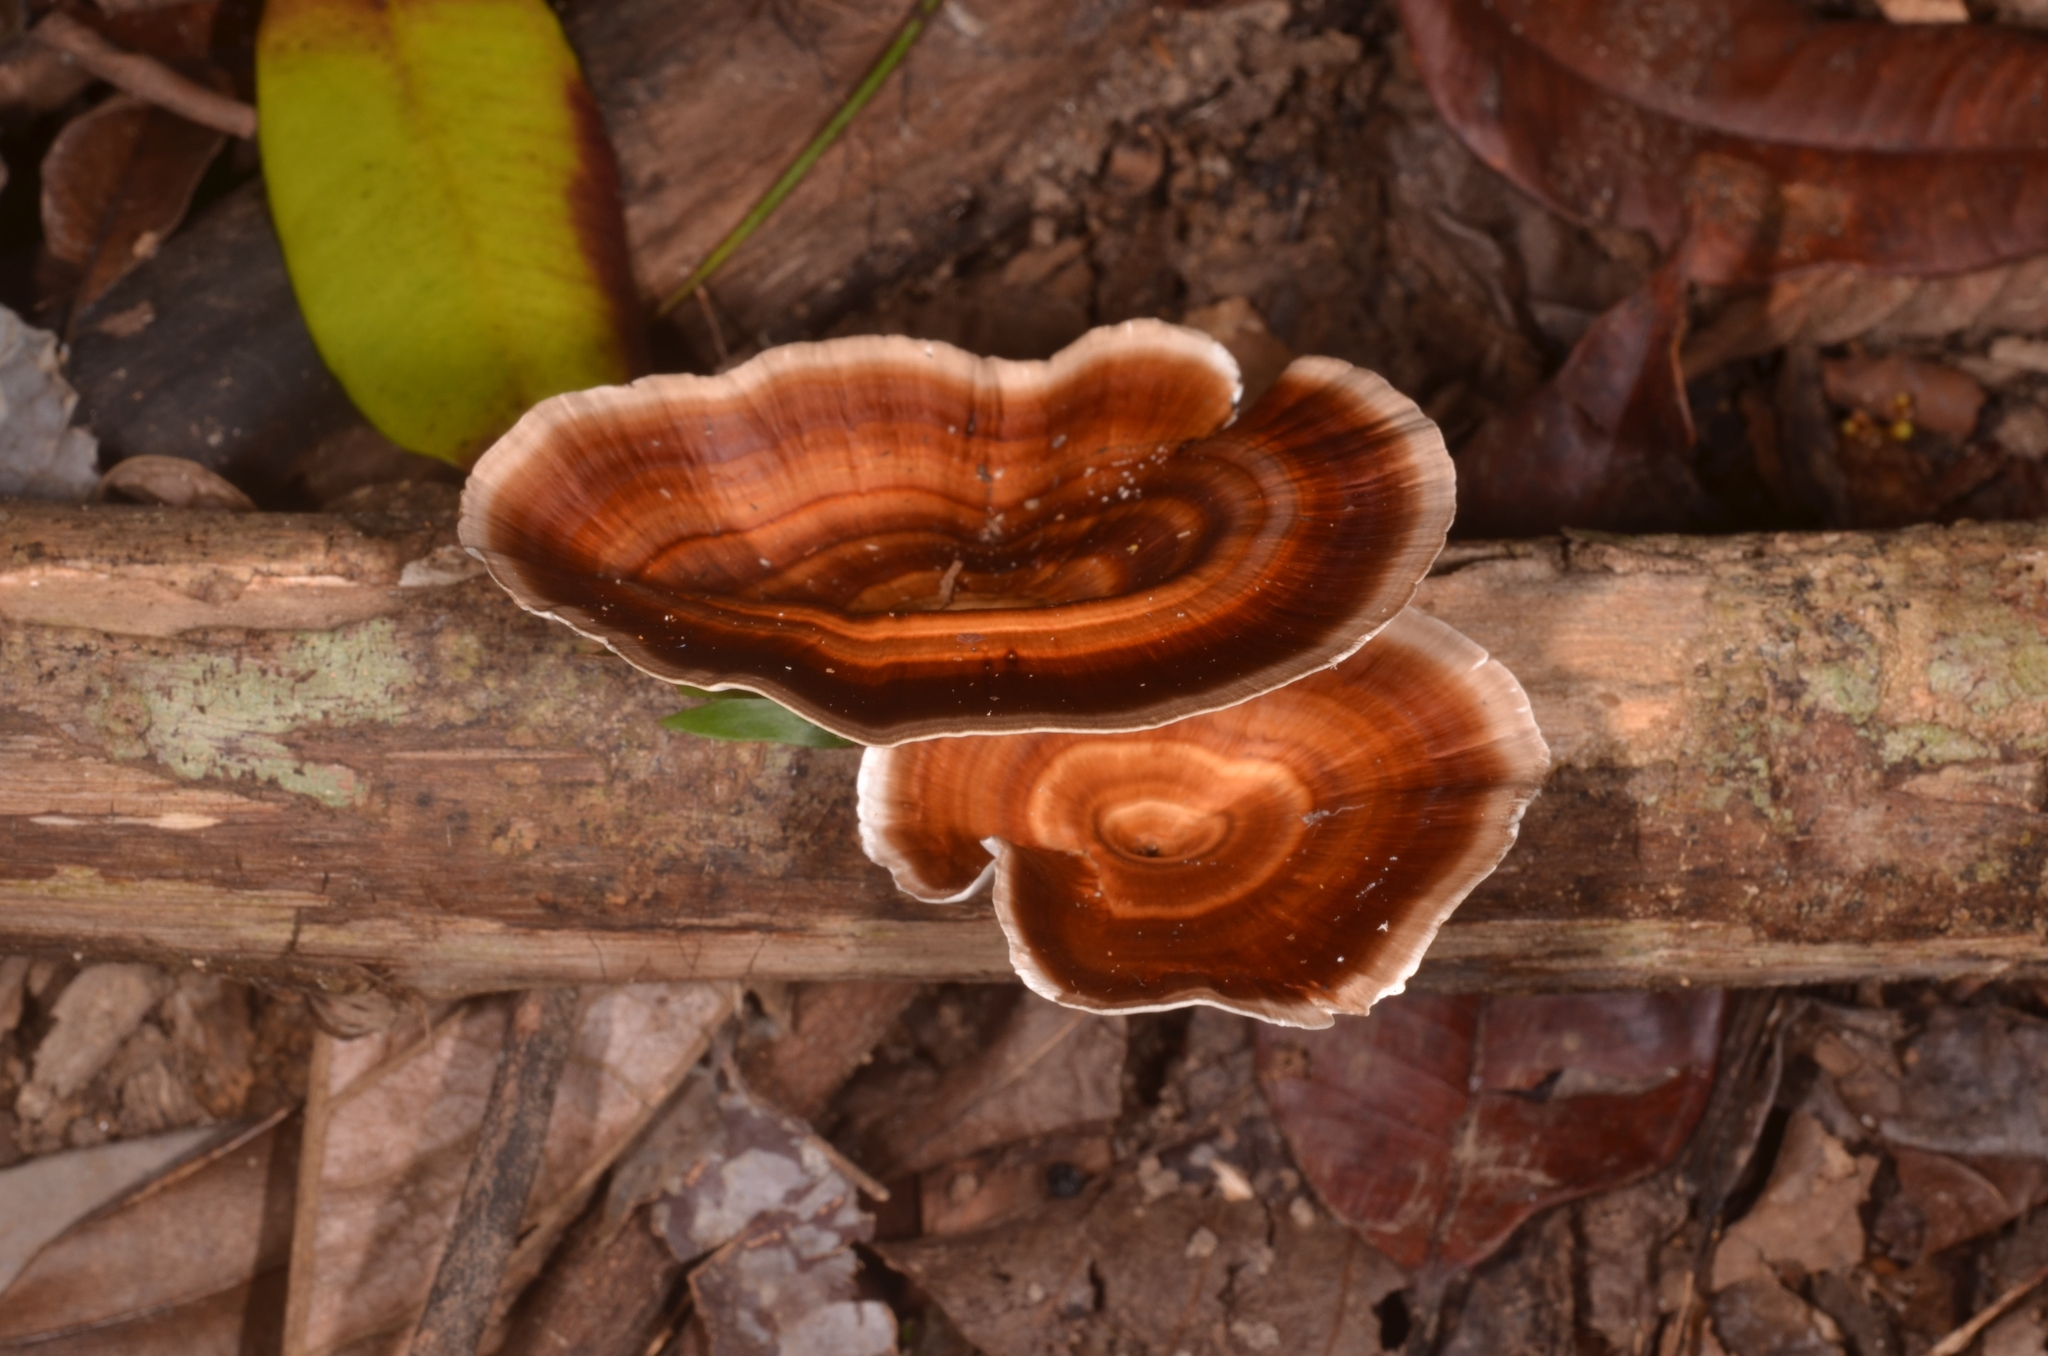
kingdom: Fungi
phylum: Basidiomycota
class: Agaricomycetes
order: Polyporales
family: Polyporaceae
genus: Microporus
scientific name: Microporus xanthopus
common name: Yellow-stemmed micropore
